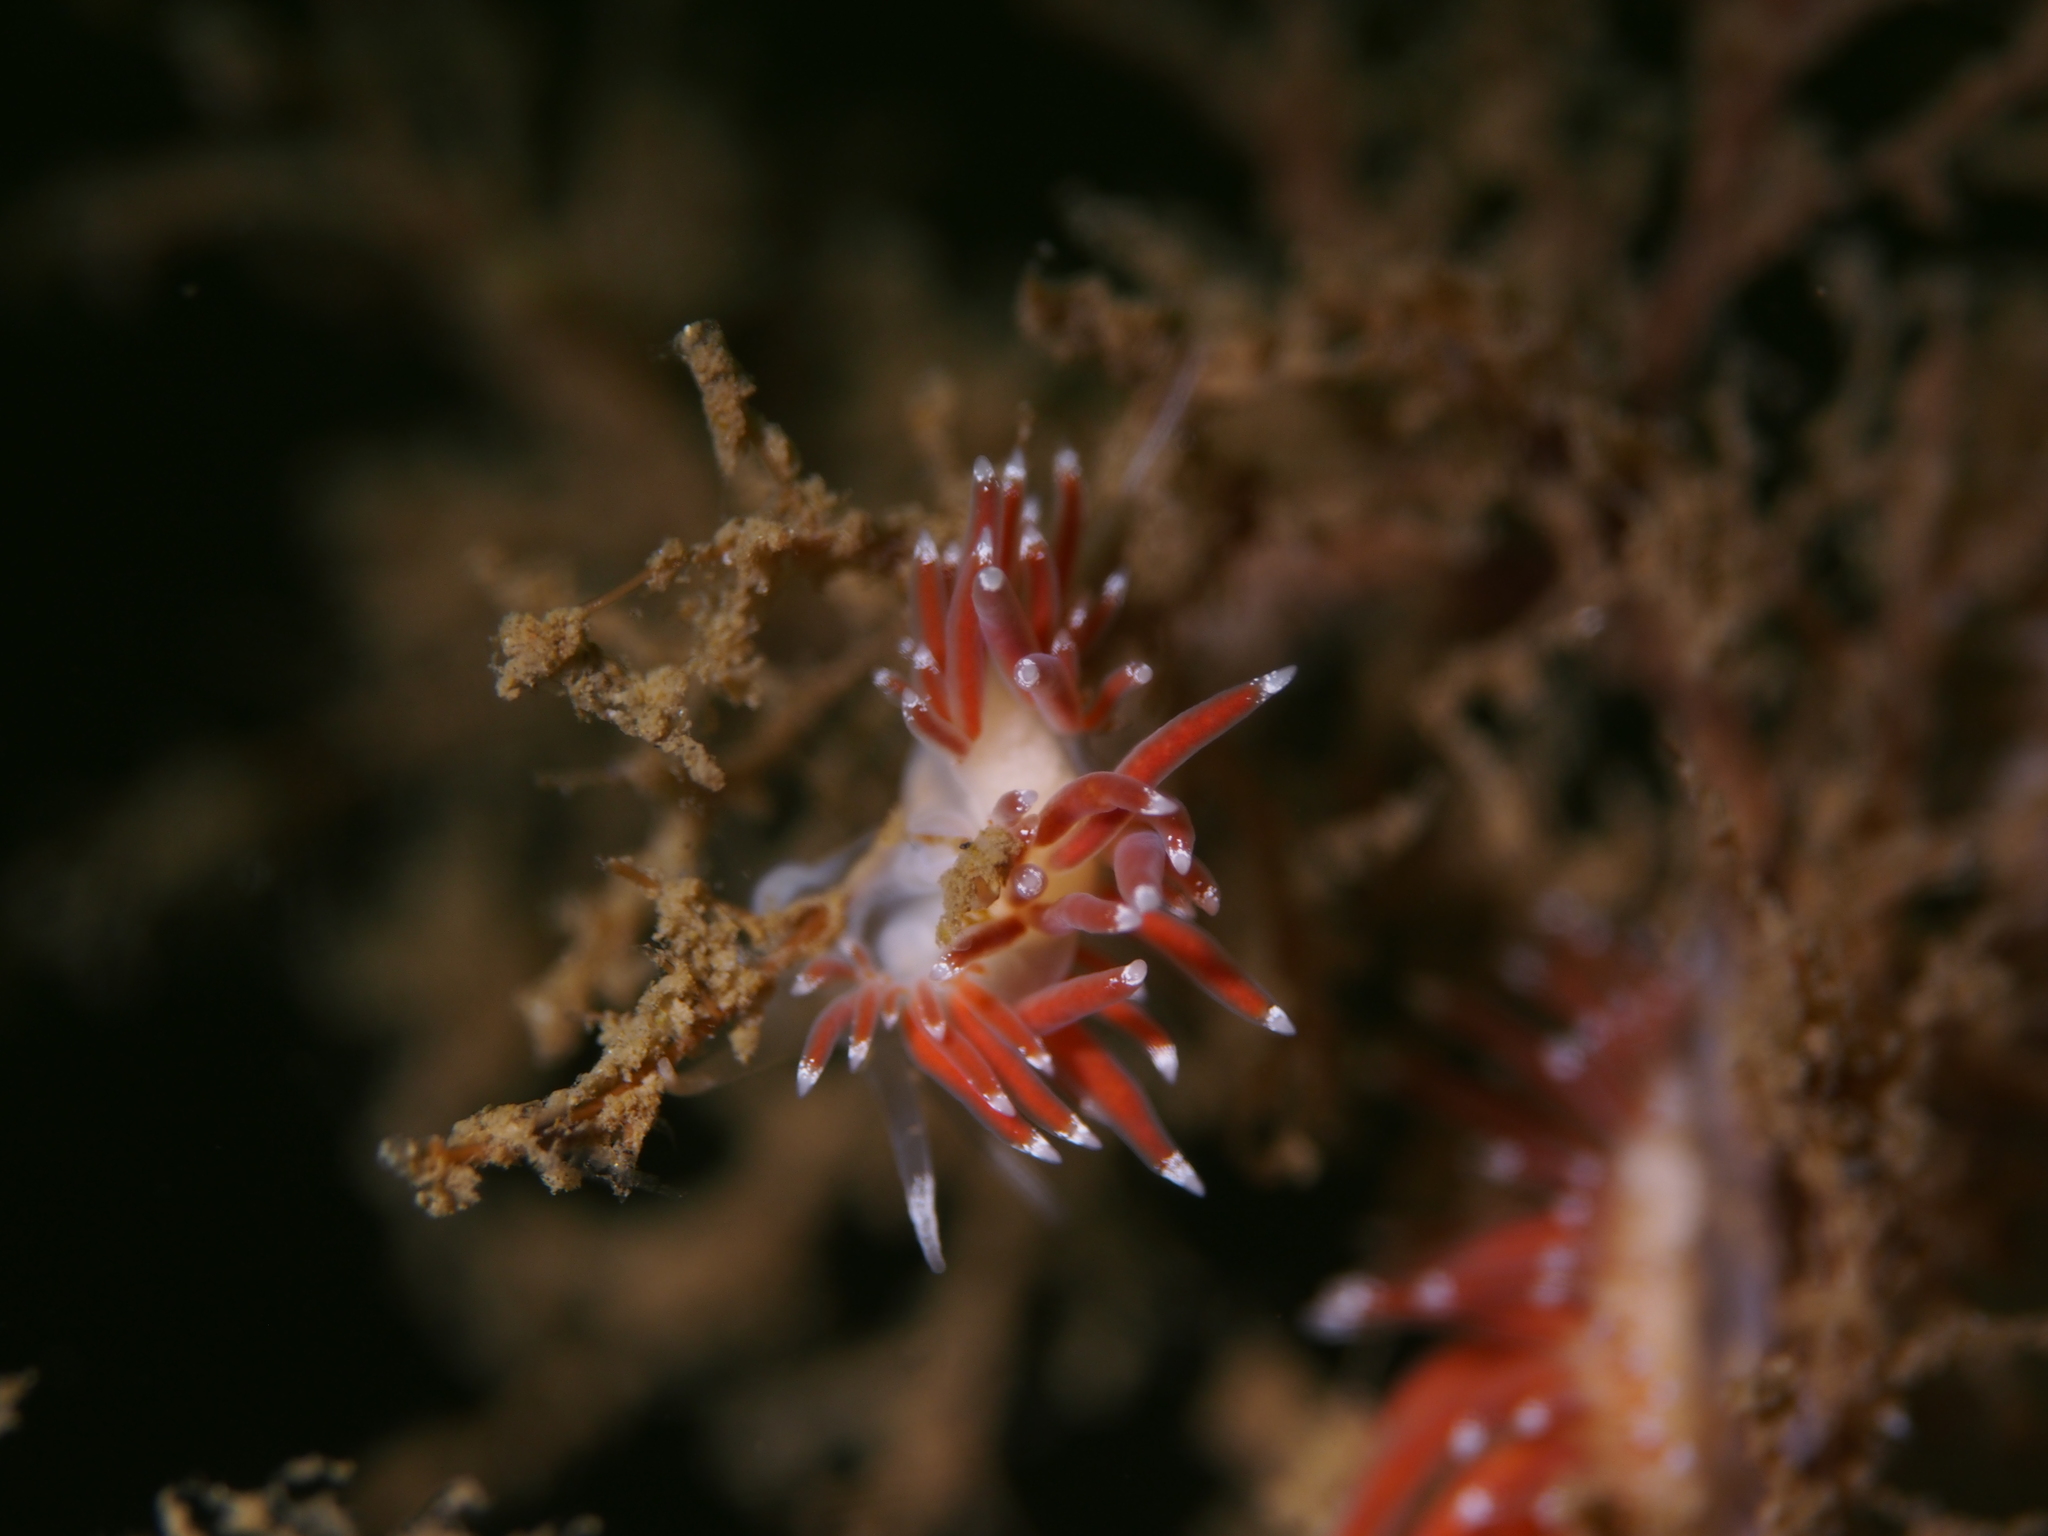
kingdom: Animalia
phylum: Mollusca
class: Gastropoda
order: Nudibranchia
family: Coryphellidae
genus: Coryphella
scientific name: Coryphella gracilis
